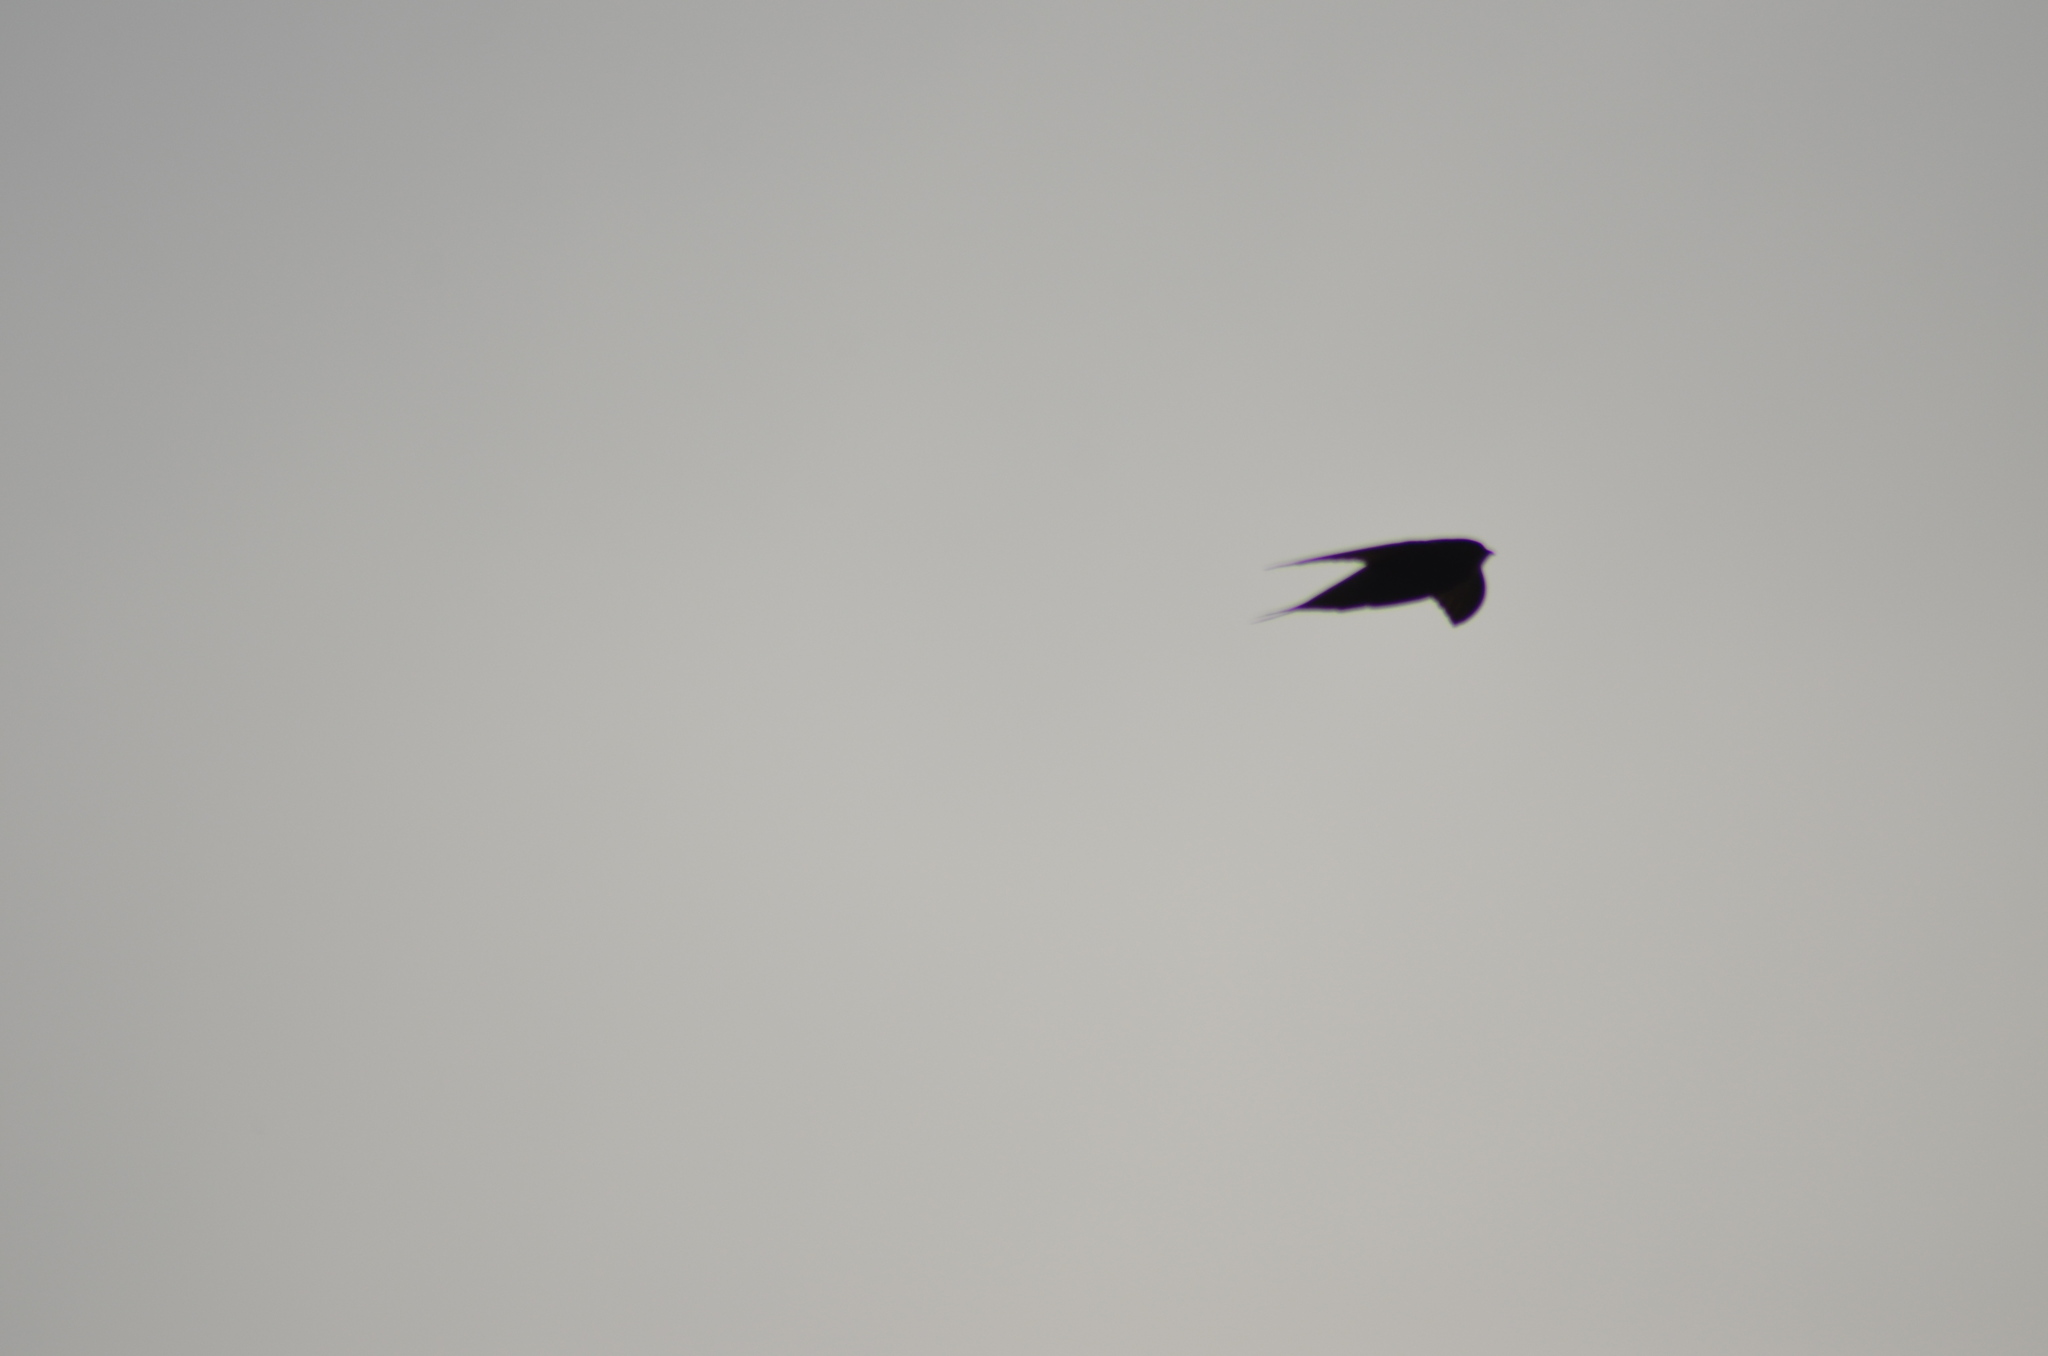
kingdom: Animalia
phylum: Chordata
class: Aves
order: Apodiformes
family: Apodidae
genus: Apus
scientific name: Apus apus
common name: Common swift
